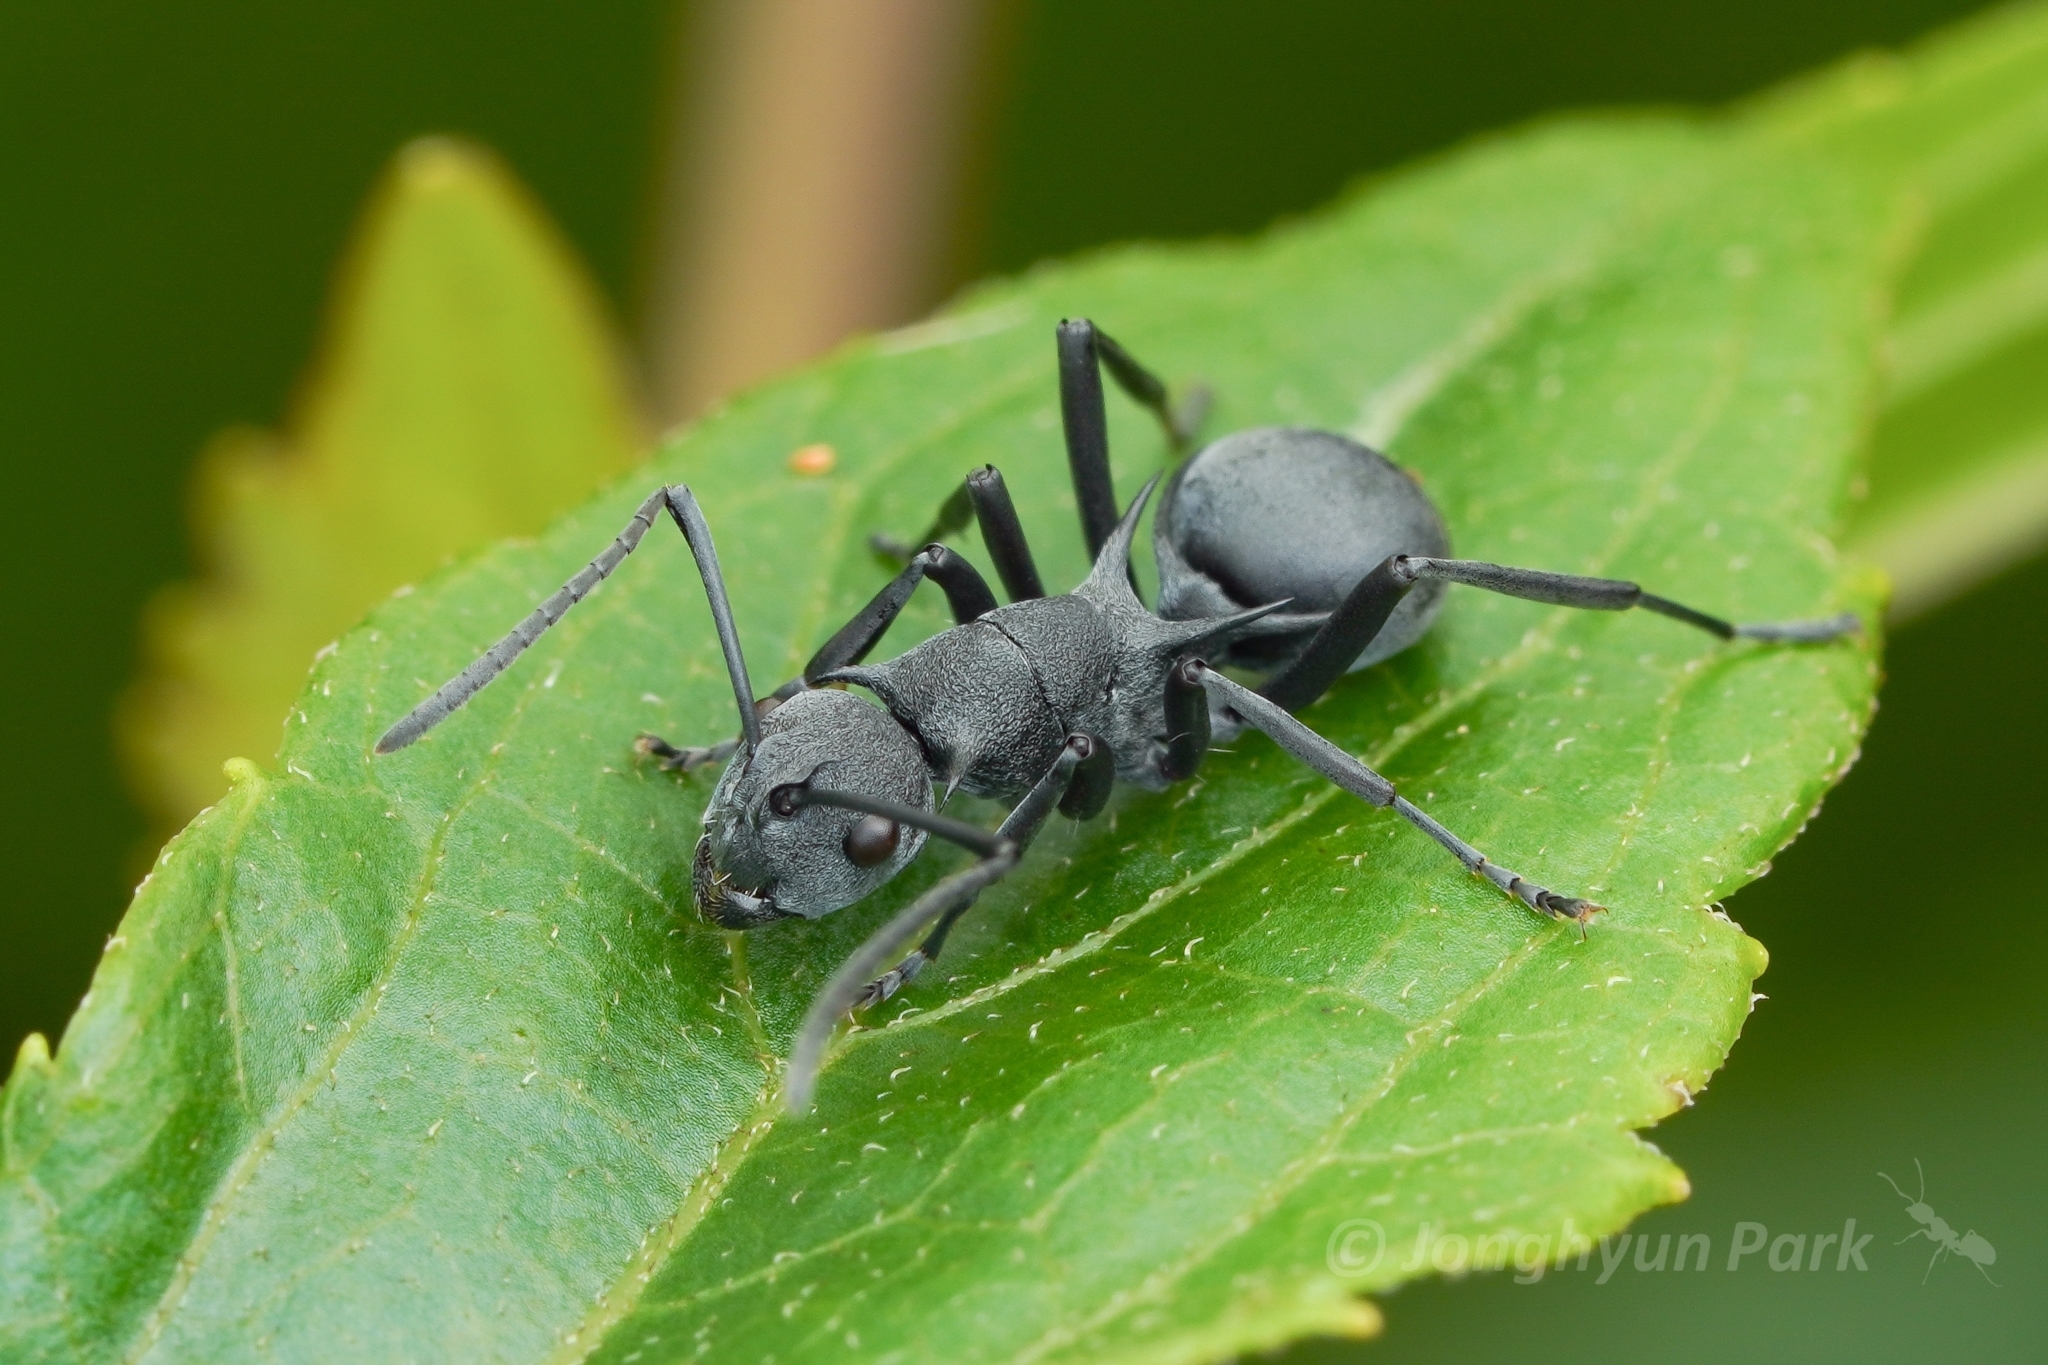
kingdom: Animalia
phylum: Arthropoda
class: Insecta
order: Hymenoptera
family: Formicidae
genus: Polyrhachis
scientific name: Polyrhachis fortis
